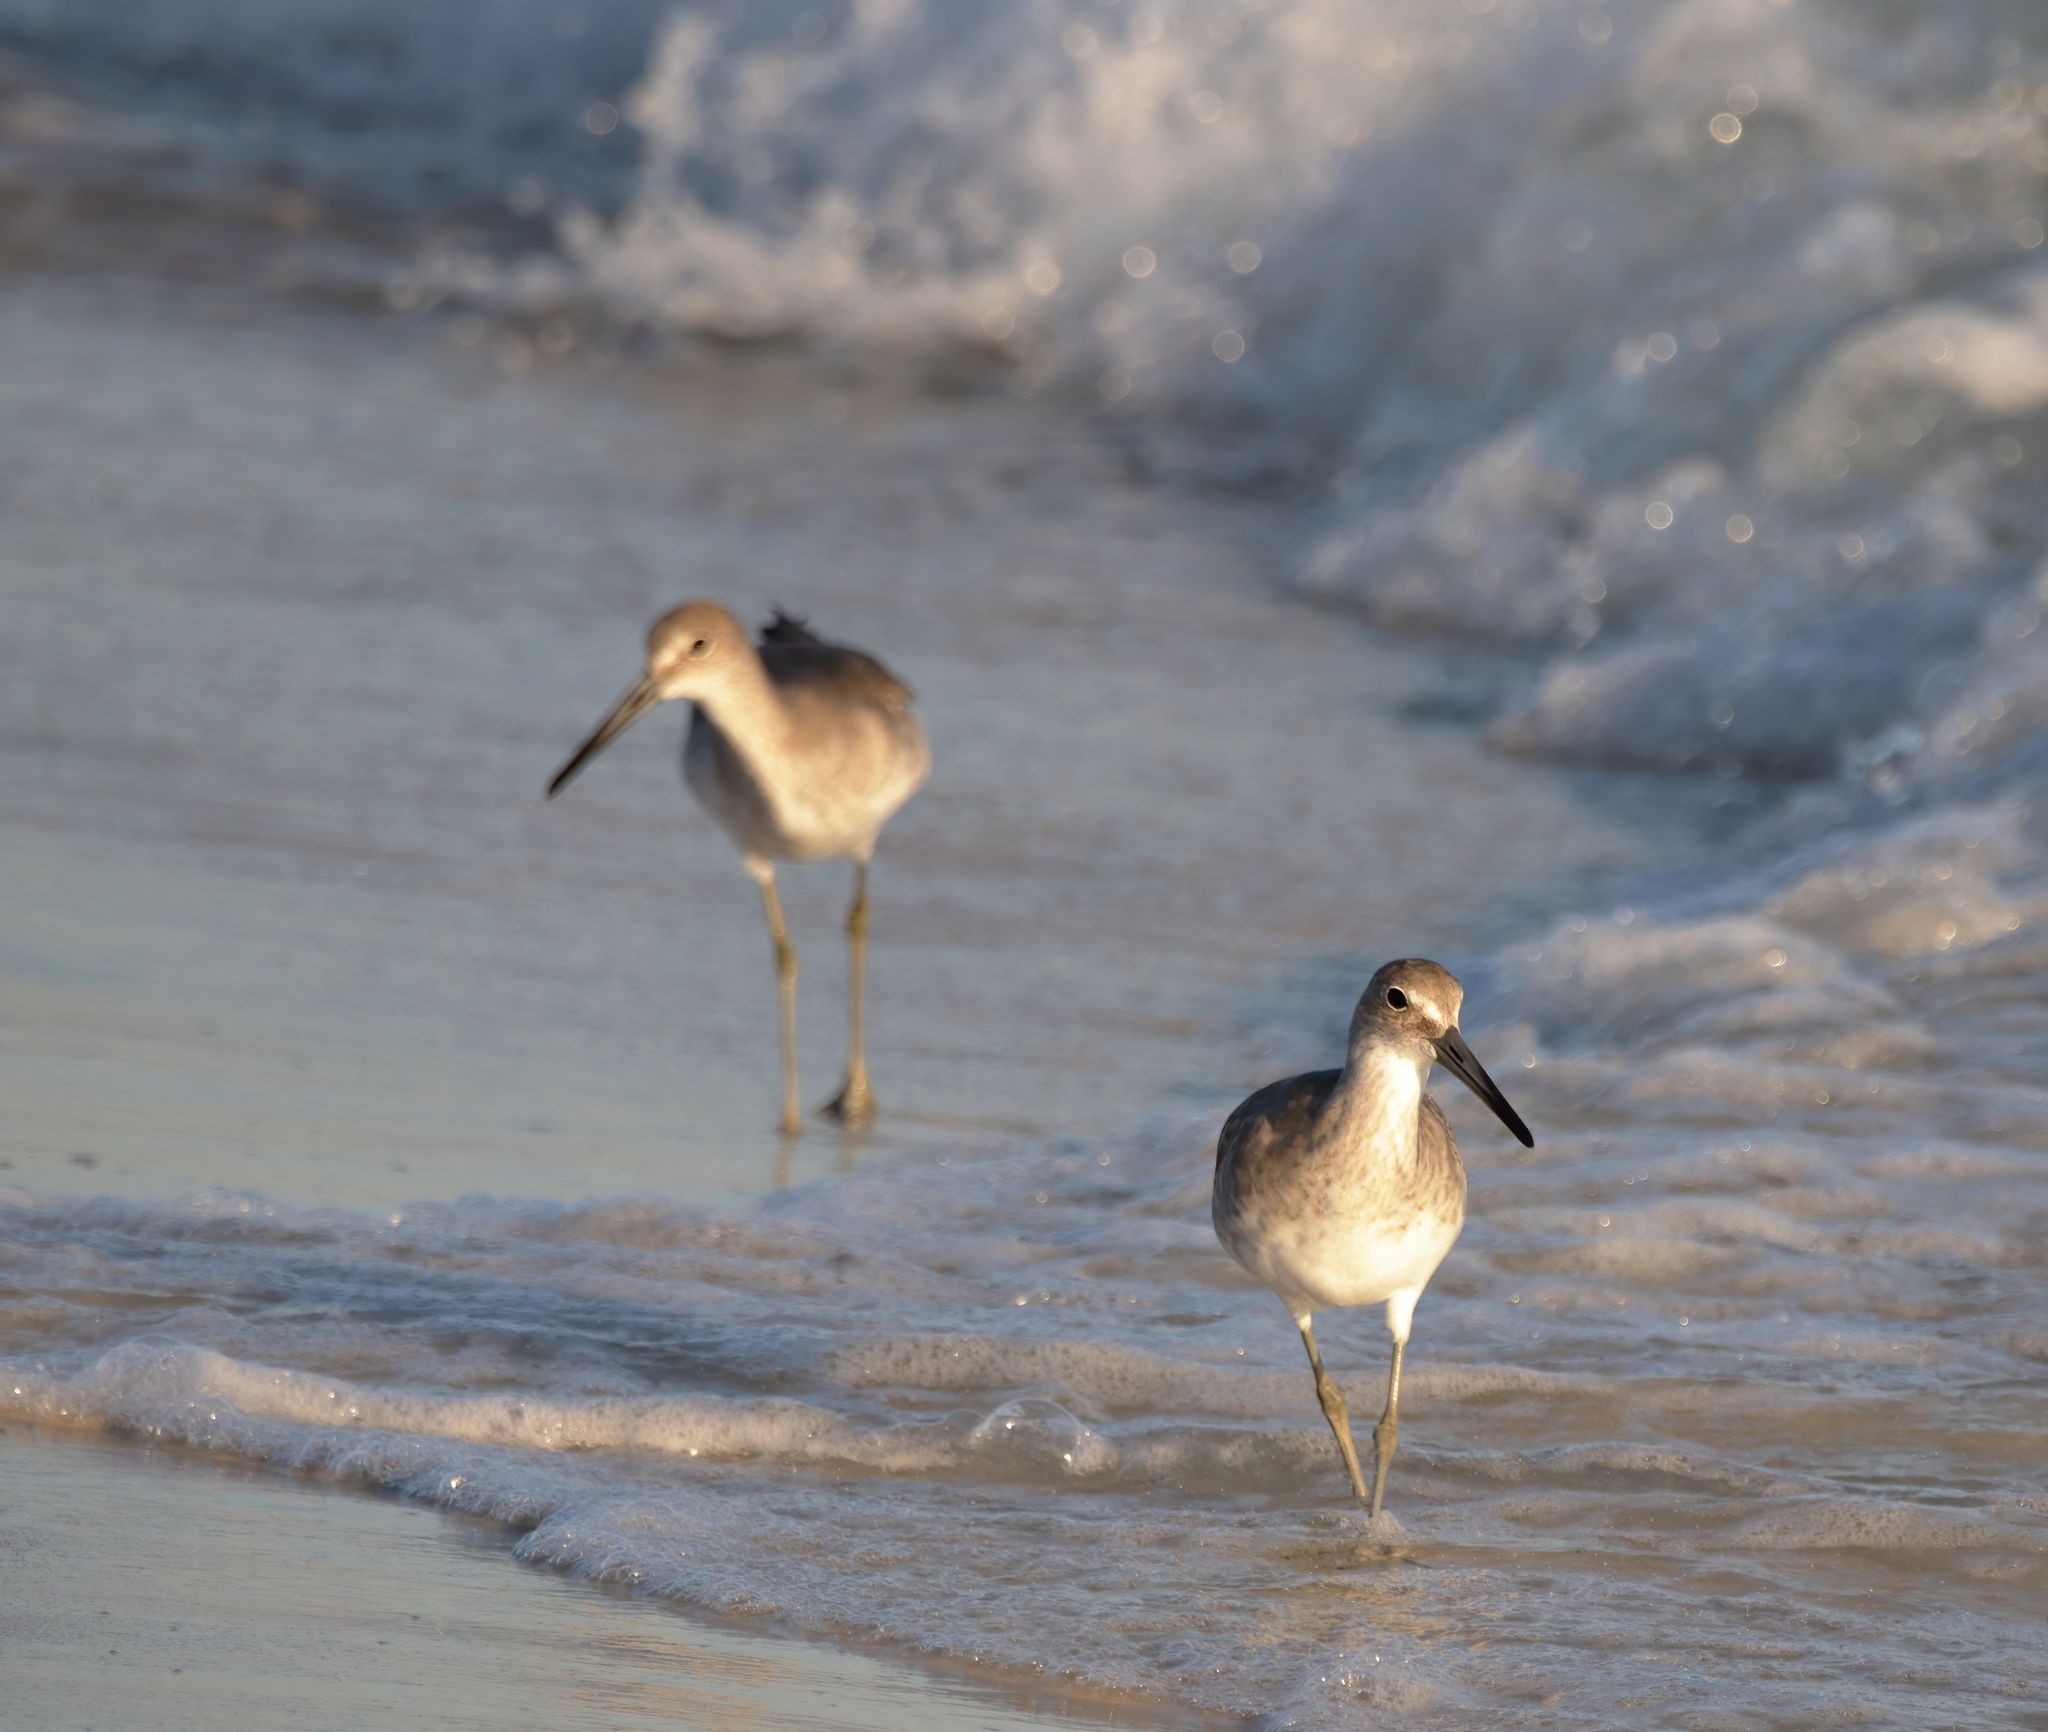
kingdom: Animalia
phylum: Chordata
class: Aves
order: Charadriiformes
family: Scolopacidae
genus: Tringa
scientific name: Tringa semipalmata
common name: Willet
